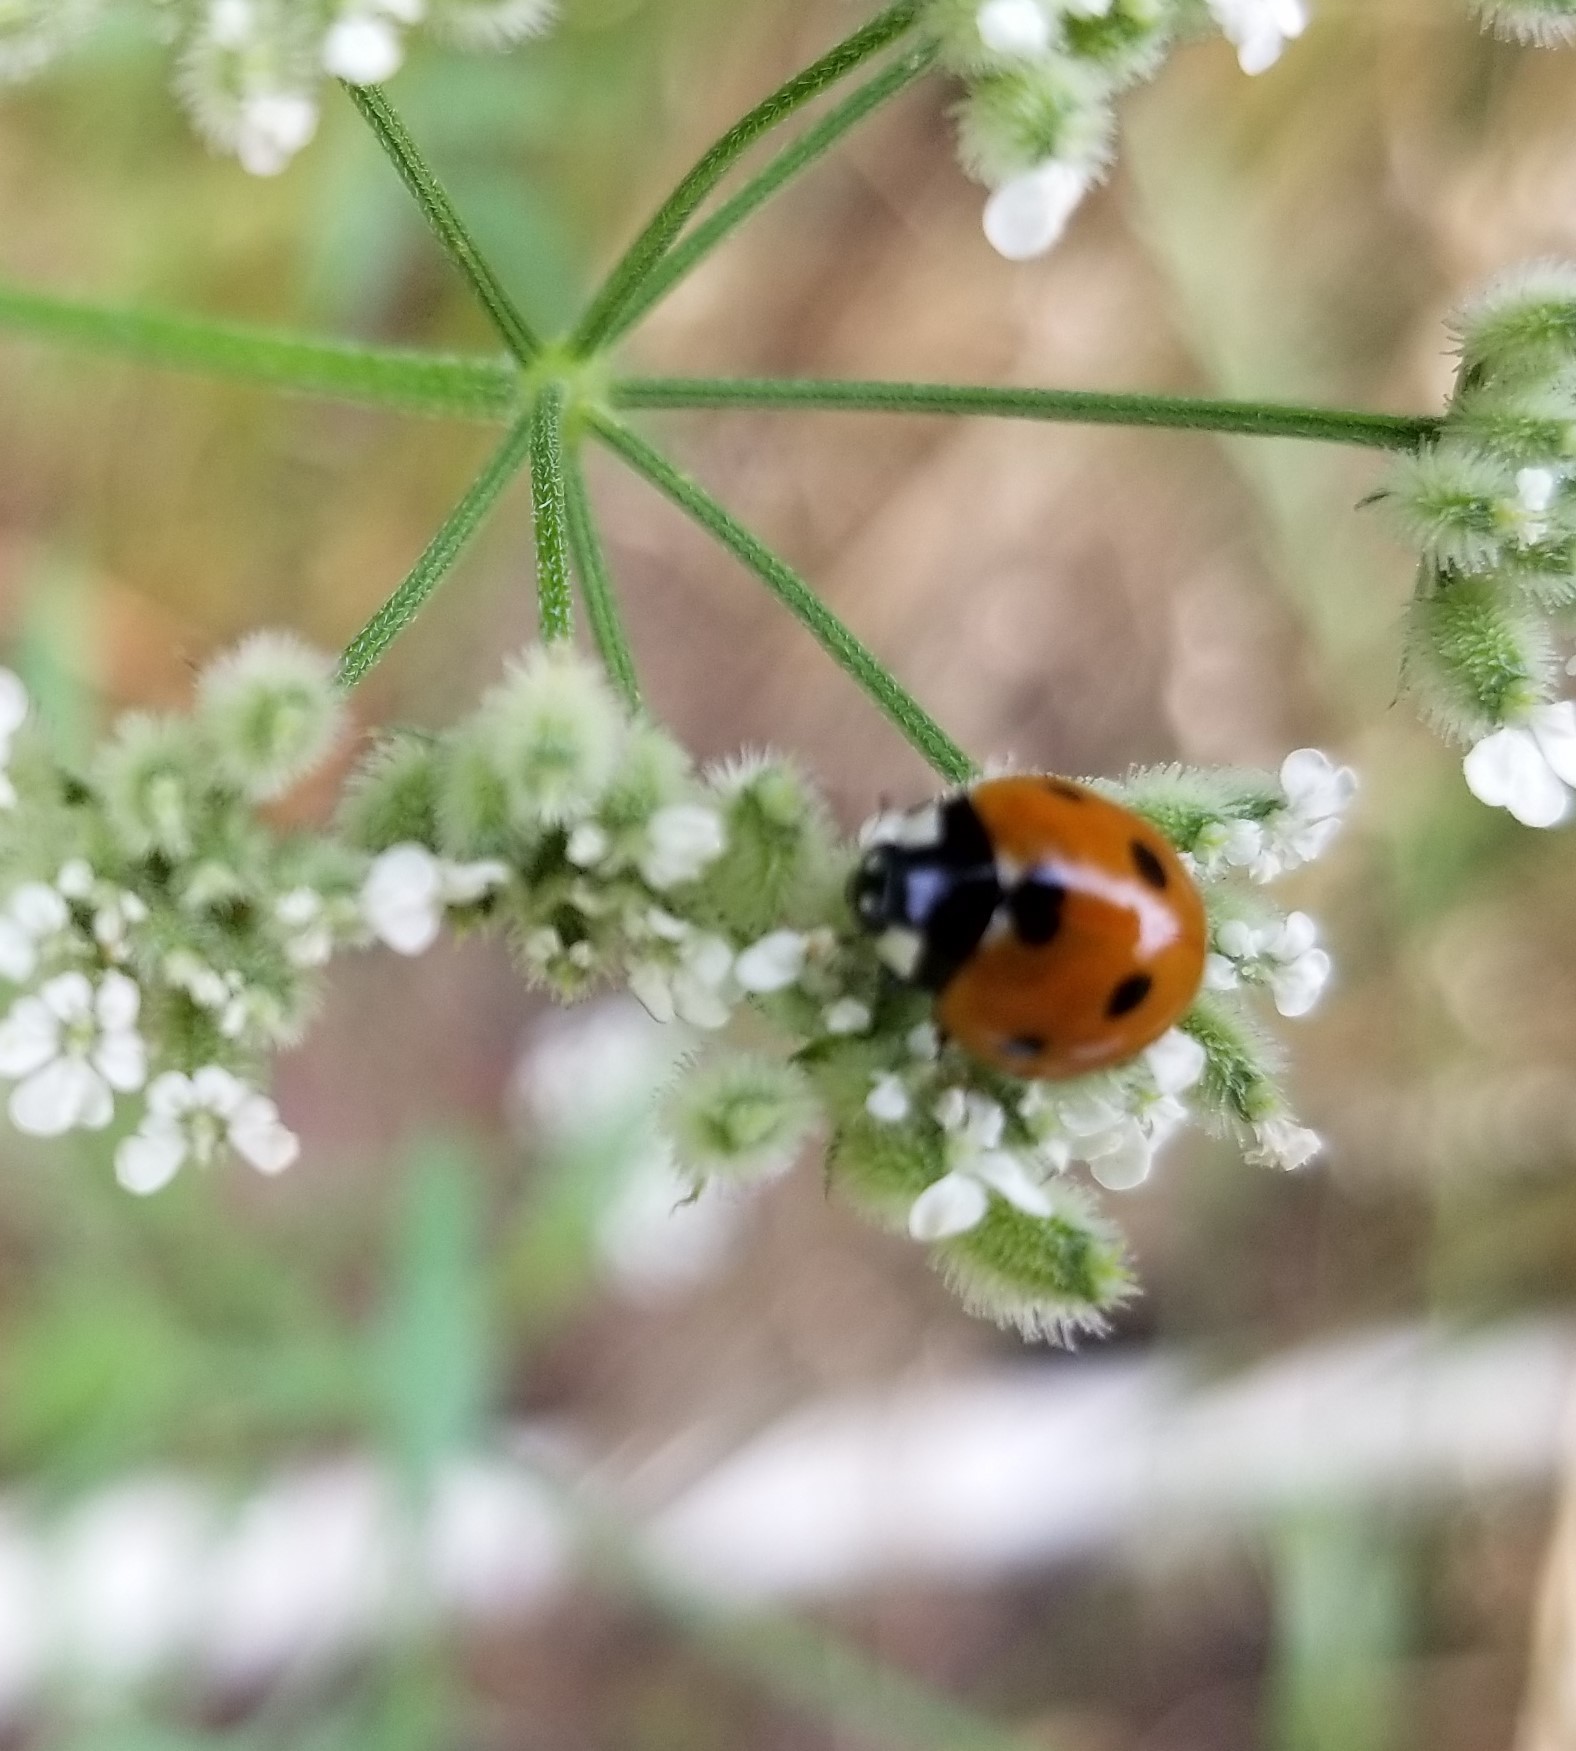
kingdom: Animalia
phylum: Arthropoda
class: Insecta
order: Coleoptera
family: Coccinellidae
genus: Coccinella
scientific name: Coccinella septempunctata
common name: Sevenspotted lady beetle
